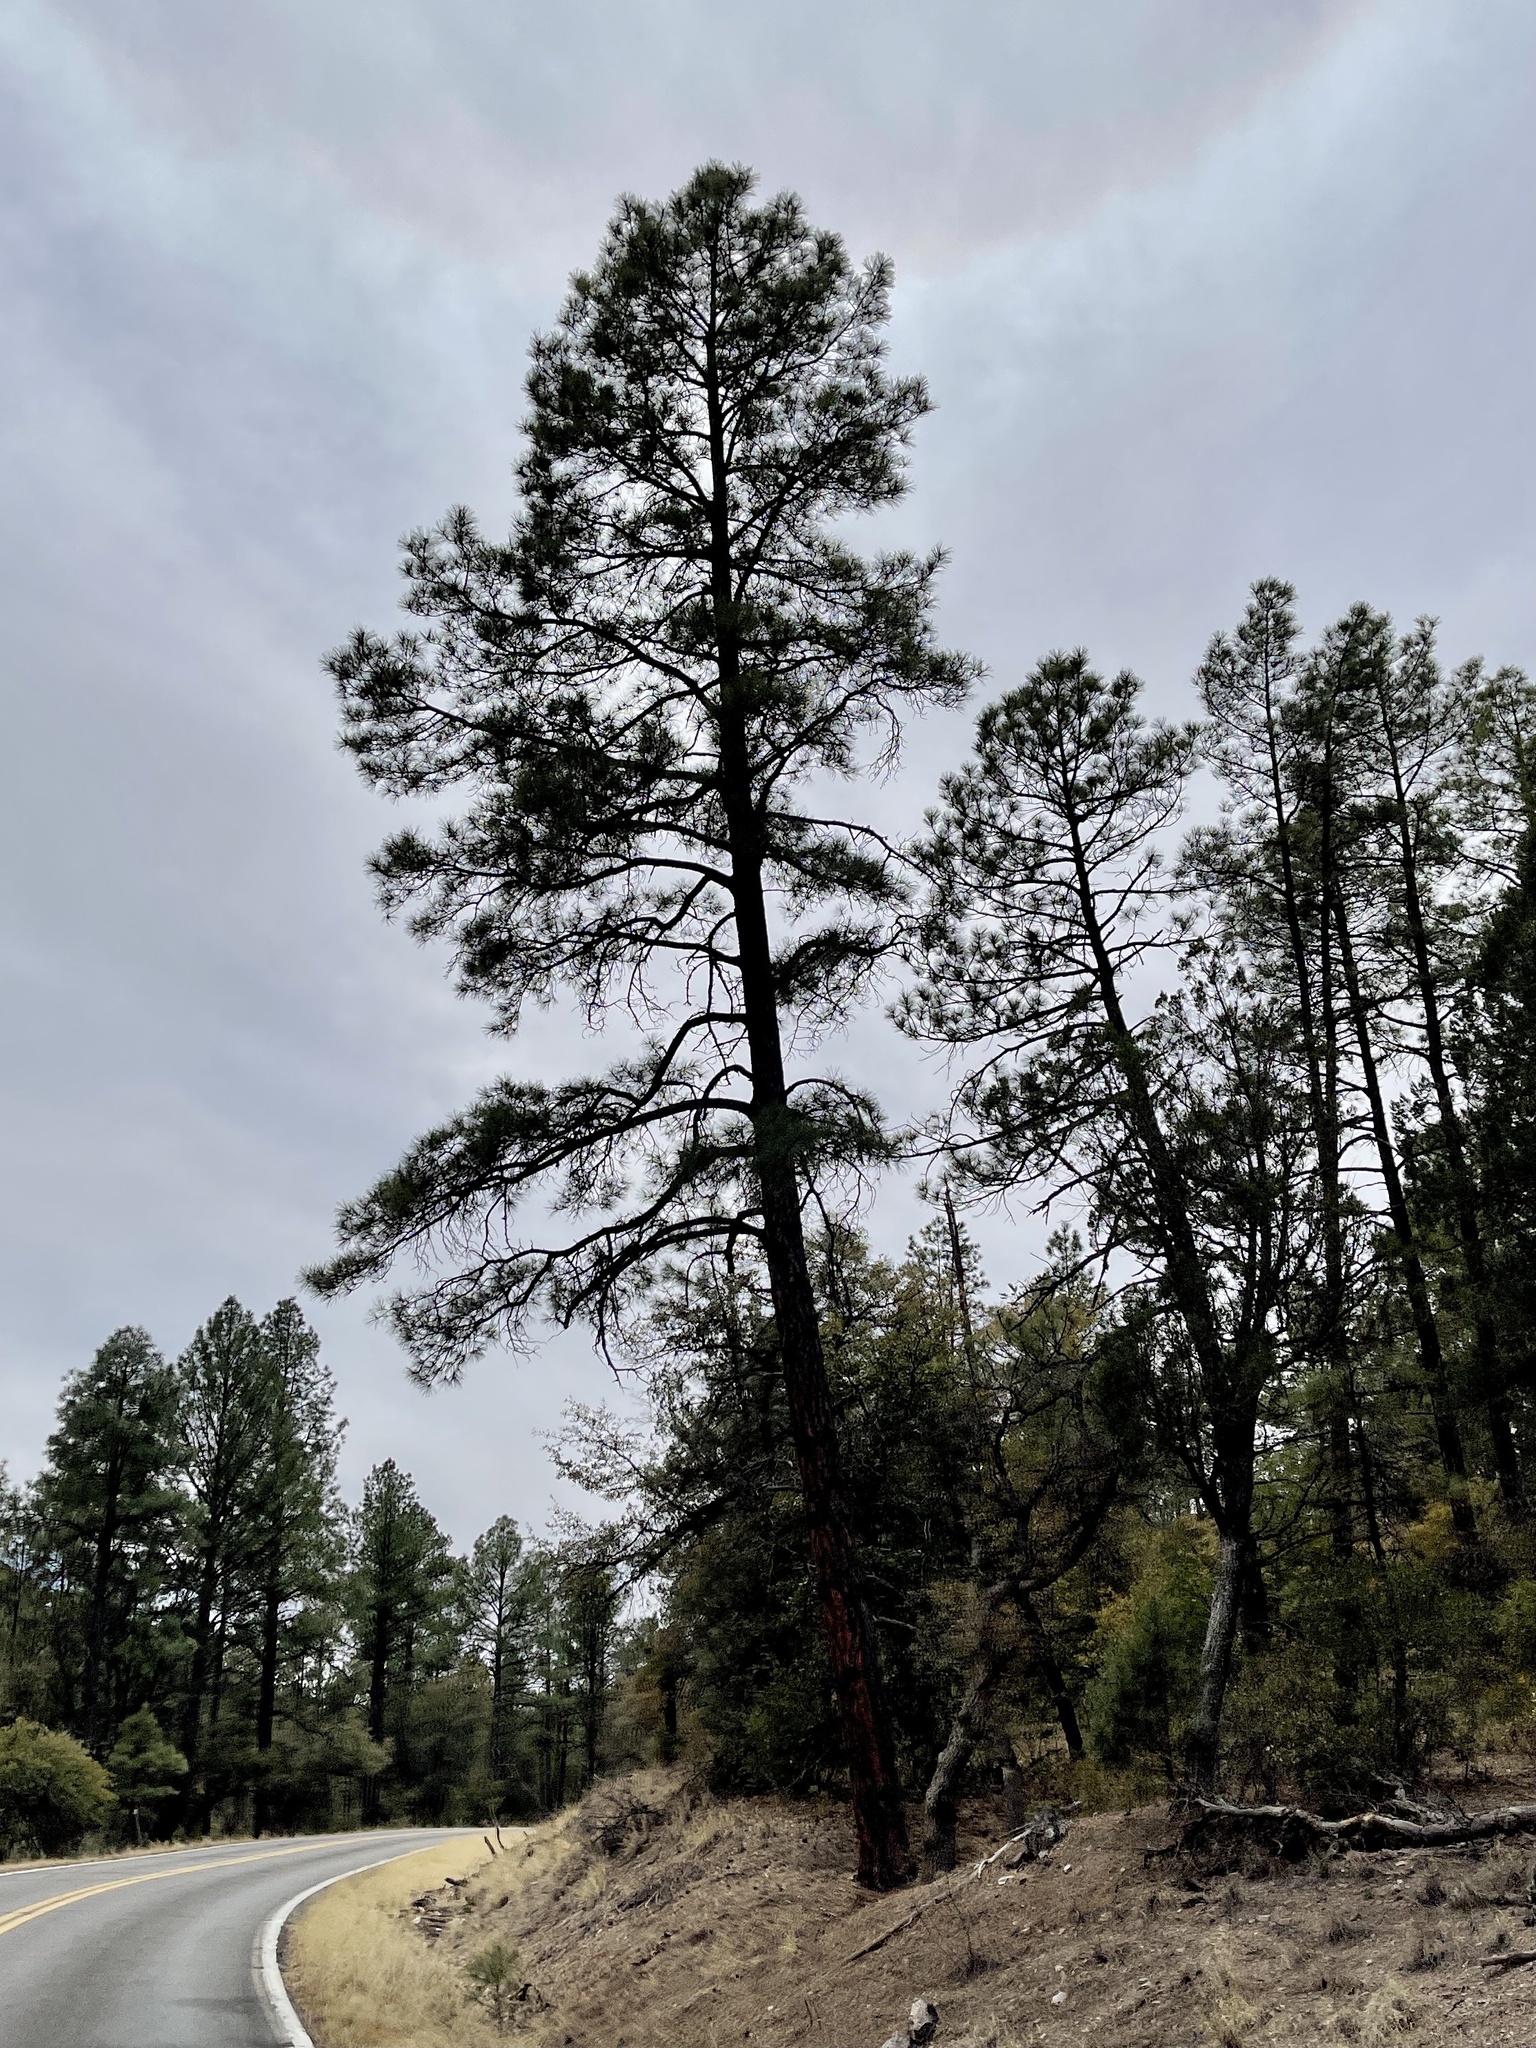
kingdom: Plantae
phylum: Tracheophyta
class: Pinopsida
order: Pinales
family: Pinaceae
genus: Pinus
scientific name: Pinus ponderosa
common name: Western yellow-pine
